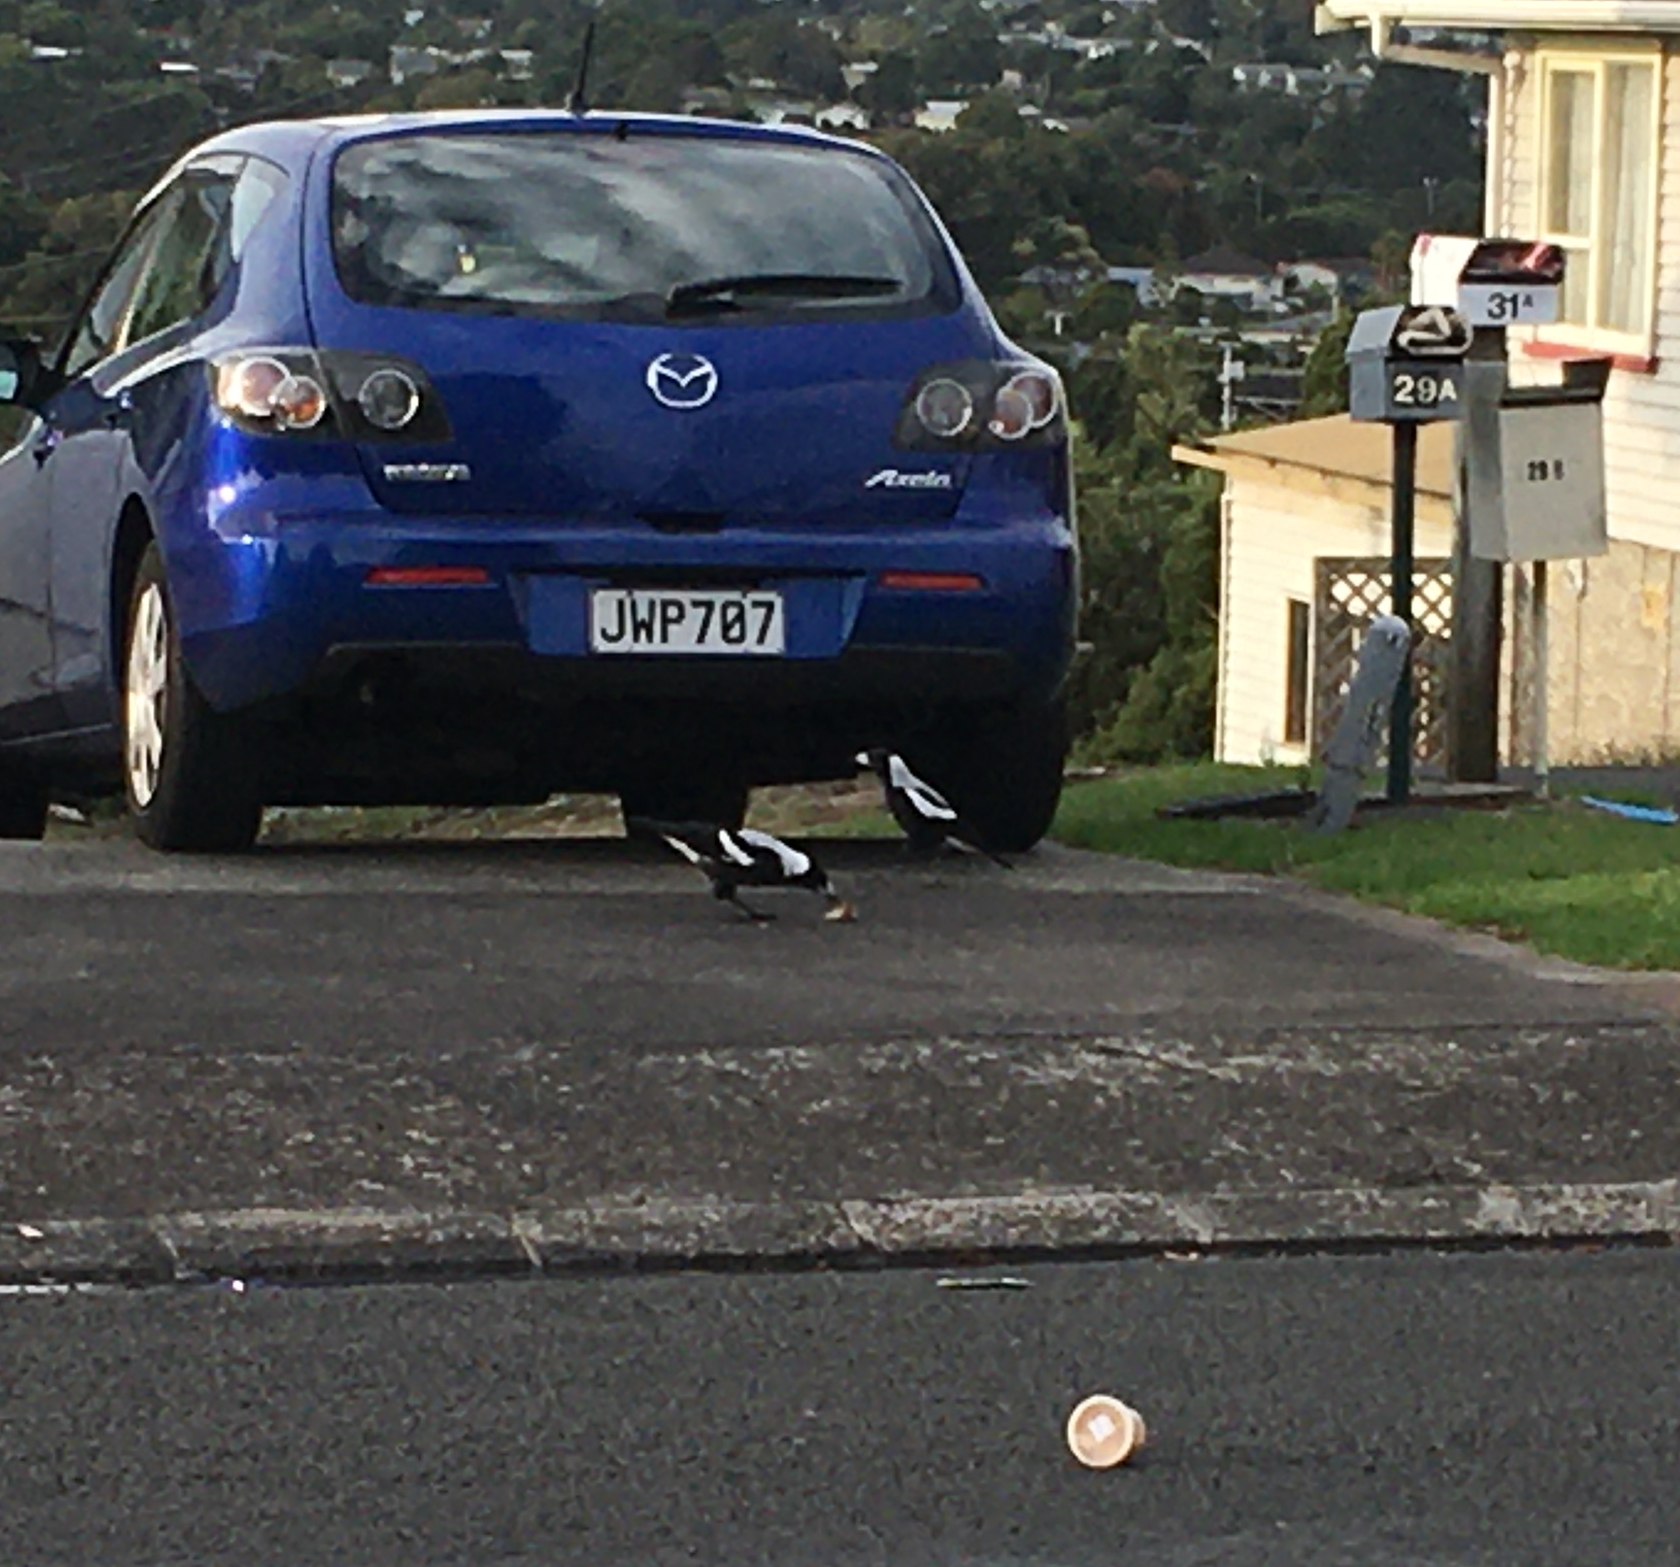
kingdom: Animalia
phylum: Chordata
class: Aves
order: Passeriformes
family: Cracticidae
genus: Gymnorhina
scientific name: Gymnorhina tibicen
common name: Australian magpie
